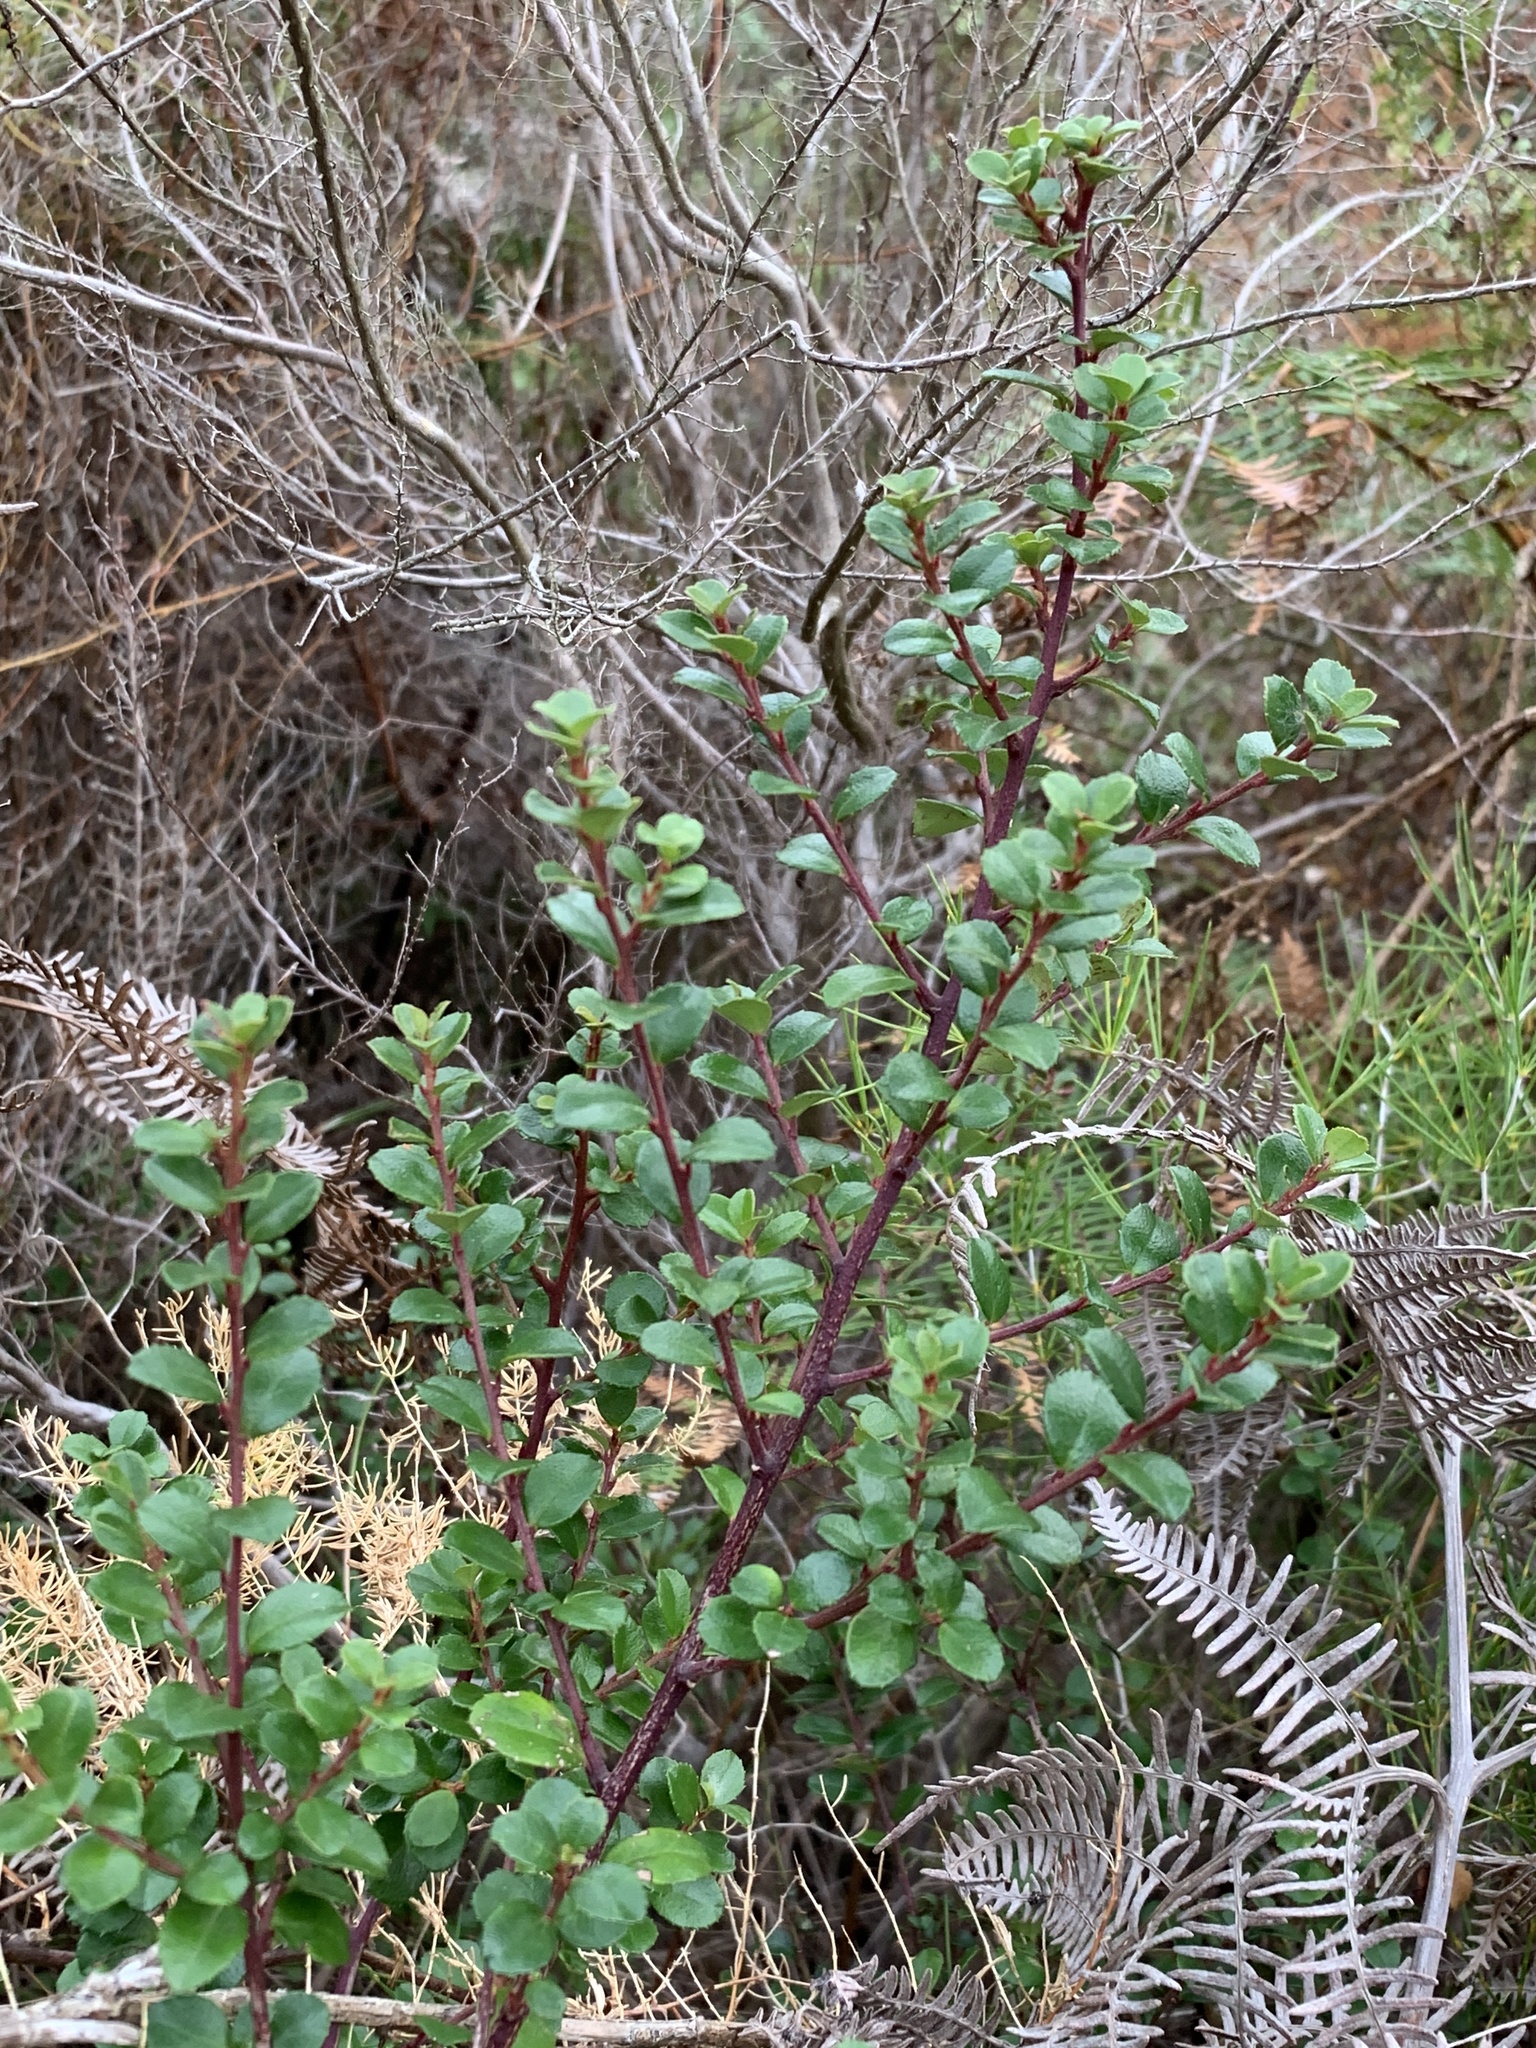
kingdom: Plantae
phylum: Tracheophyta
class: Magnoliopsida
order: Ericales
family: Primulaceae
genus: Myrsine
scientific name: Myrsine africana
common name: African-boxwood
